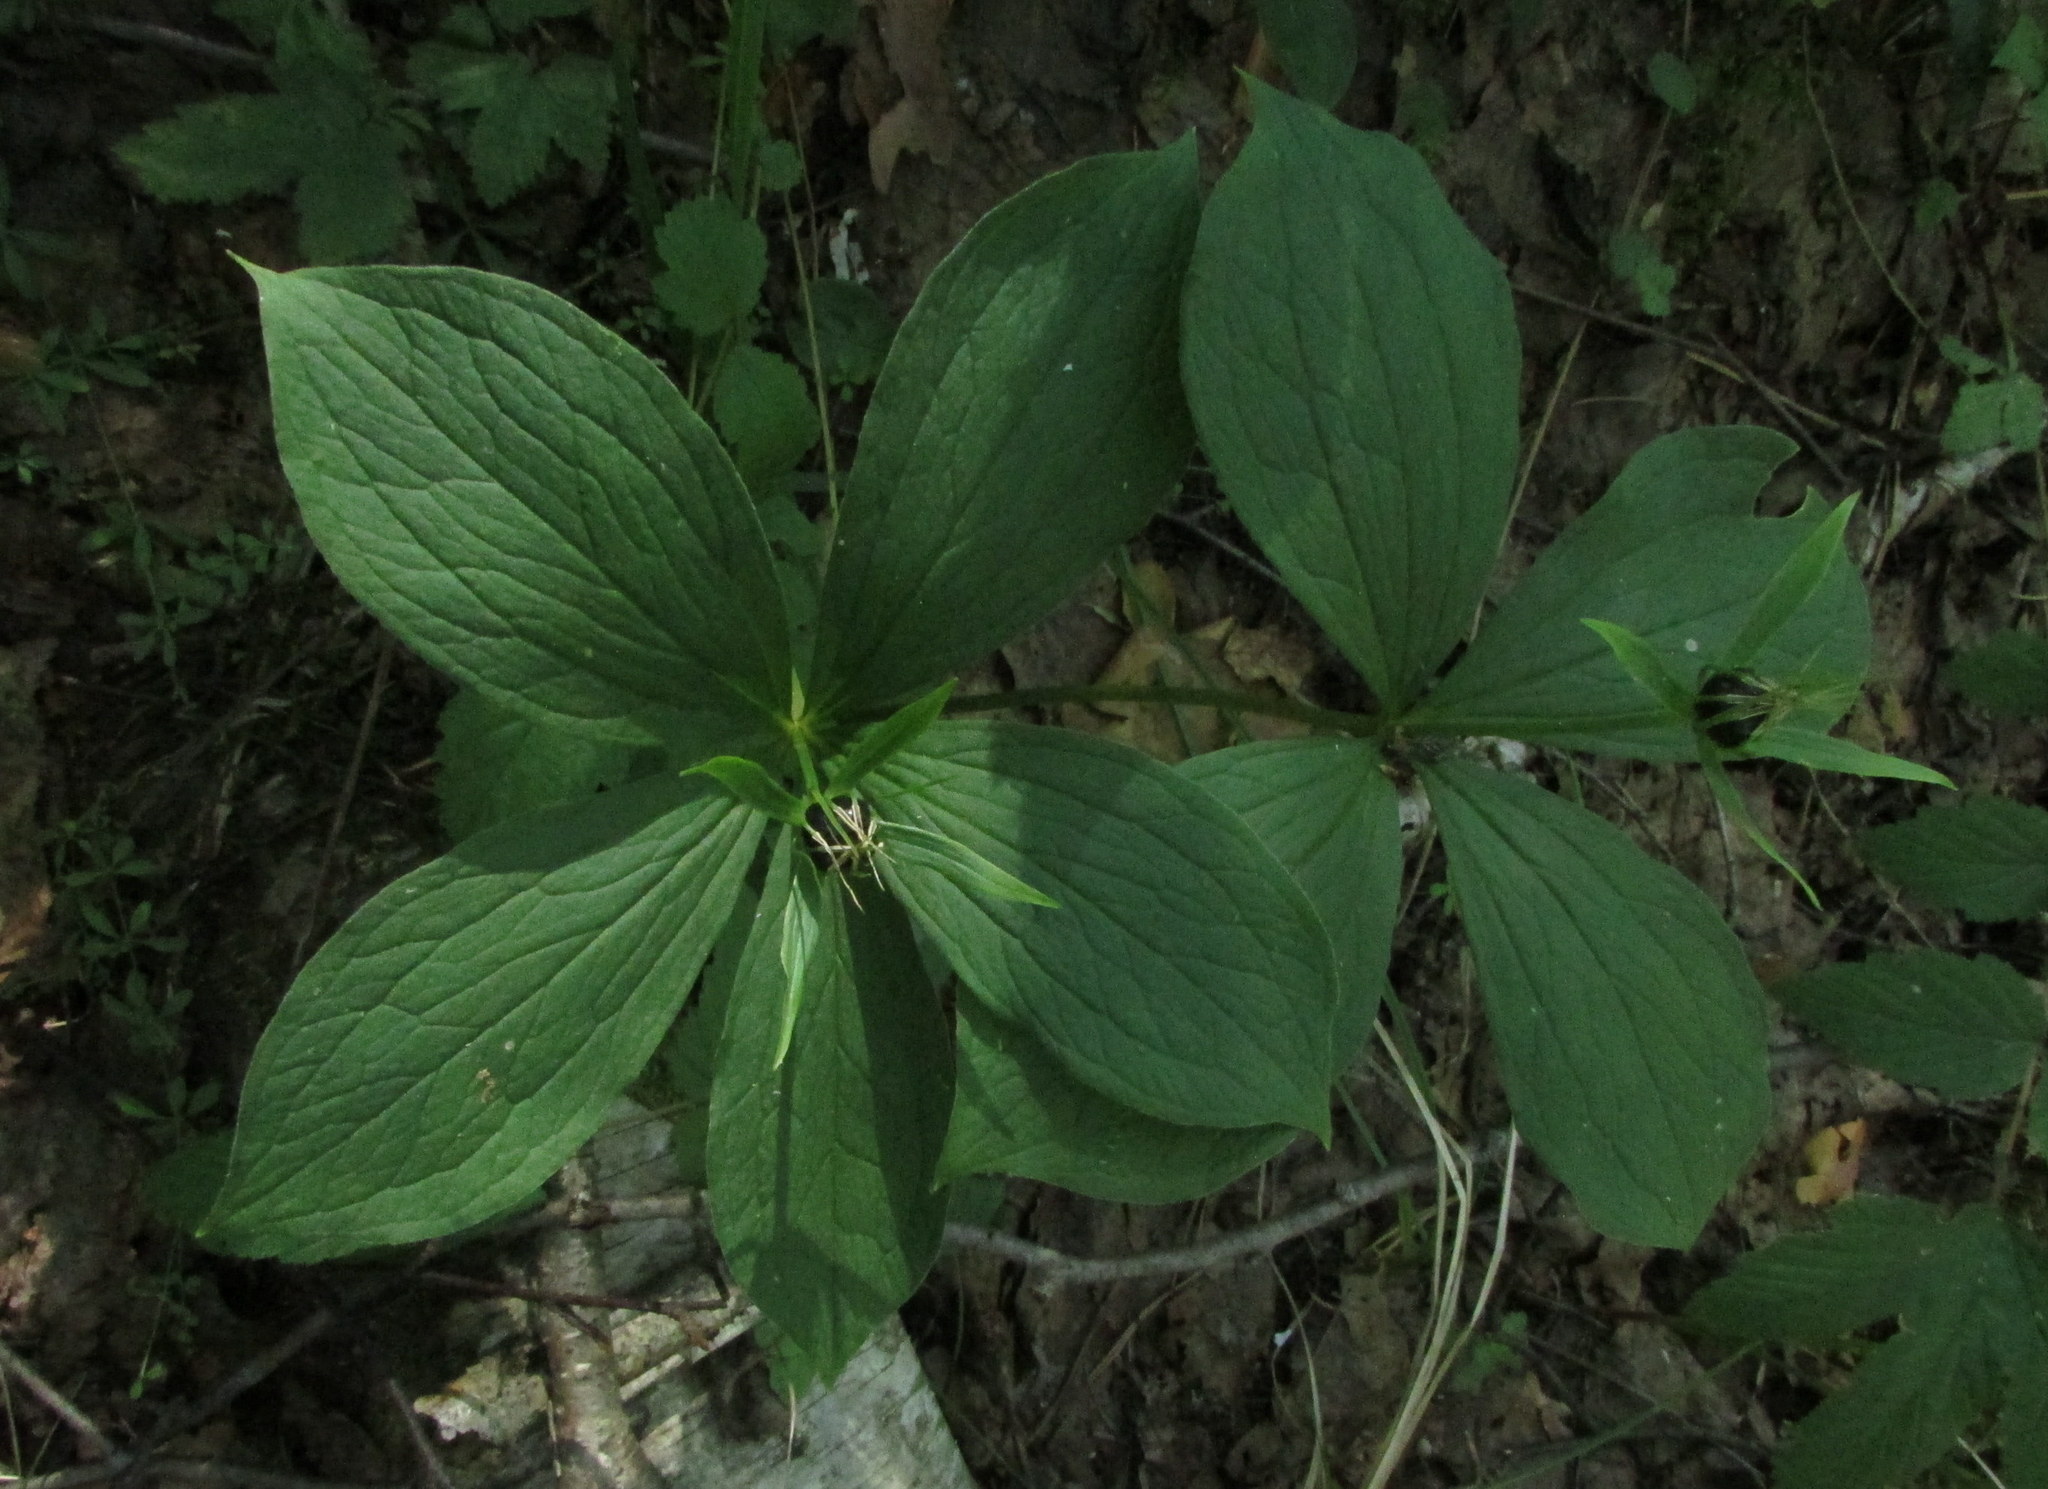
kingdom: Plantae
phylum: Tracheophyta
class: Liliopsida
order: Liliales
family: Melanthiaceae
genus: Paris
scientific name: Paris quadrifolia
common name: Herb-paris
